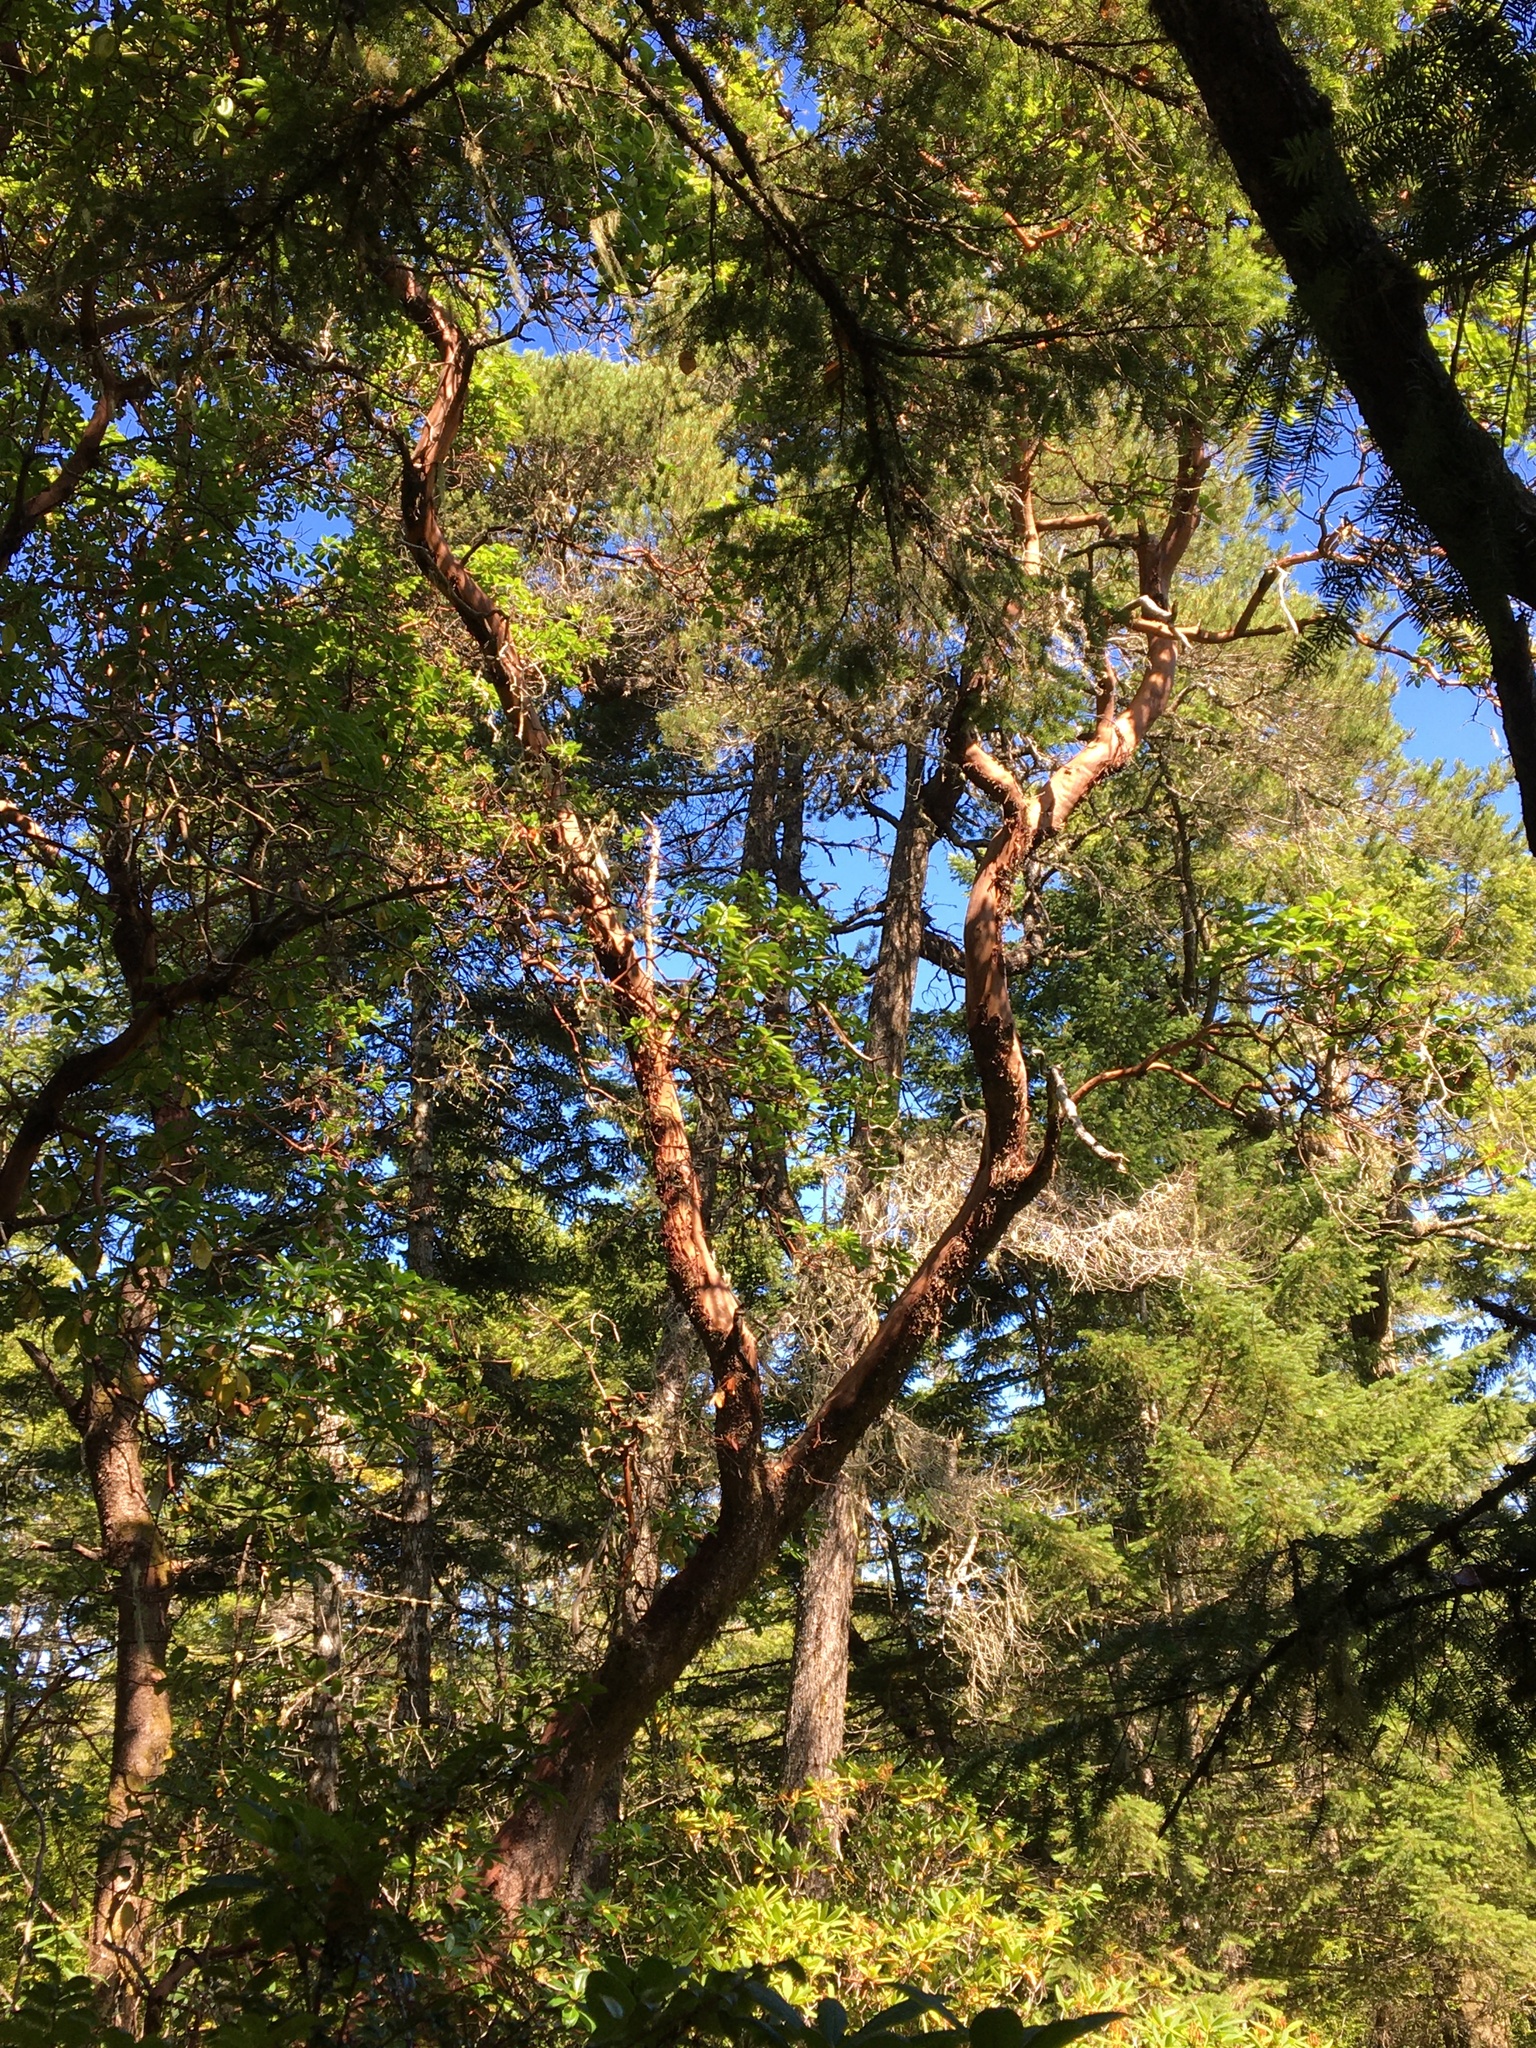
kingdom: Plantae
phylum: Tracheophyta
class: Magnoliopsida
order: Ericales
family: Ericaceae
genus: Arbutus
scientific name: Arbutus menziesii
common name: Pacific madrone
